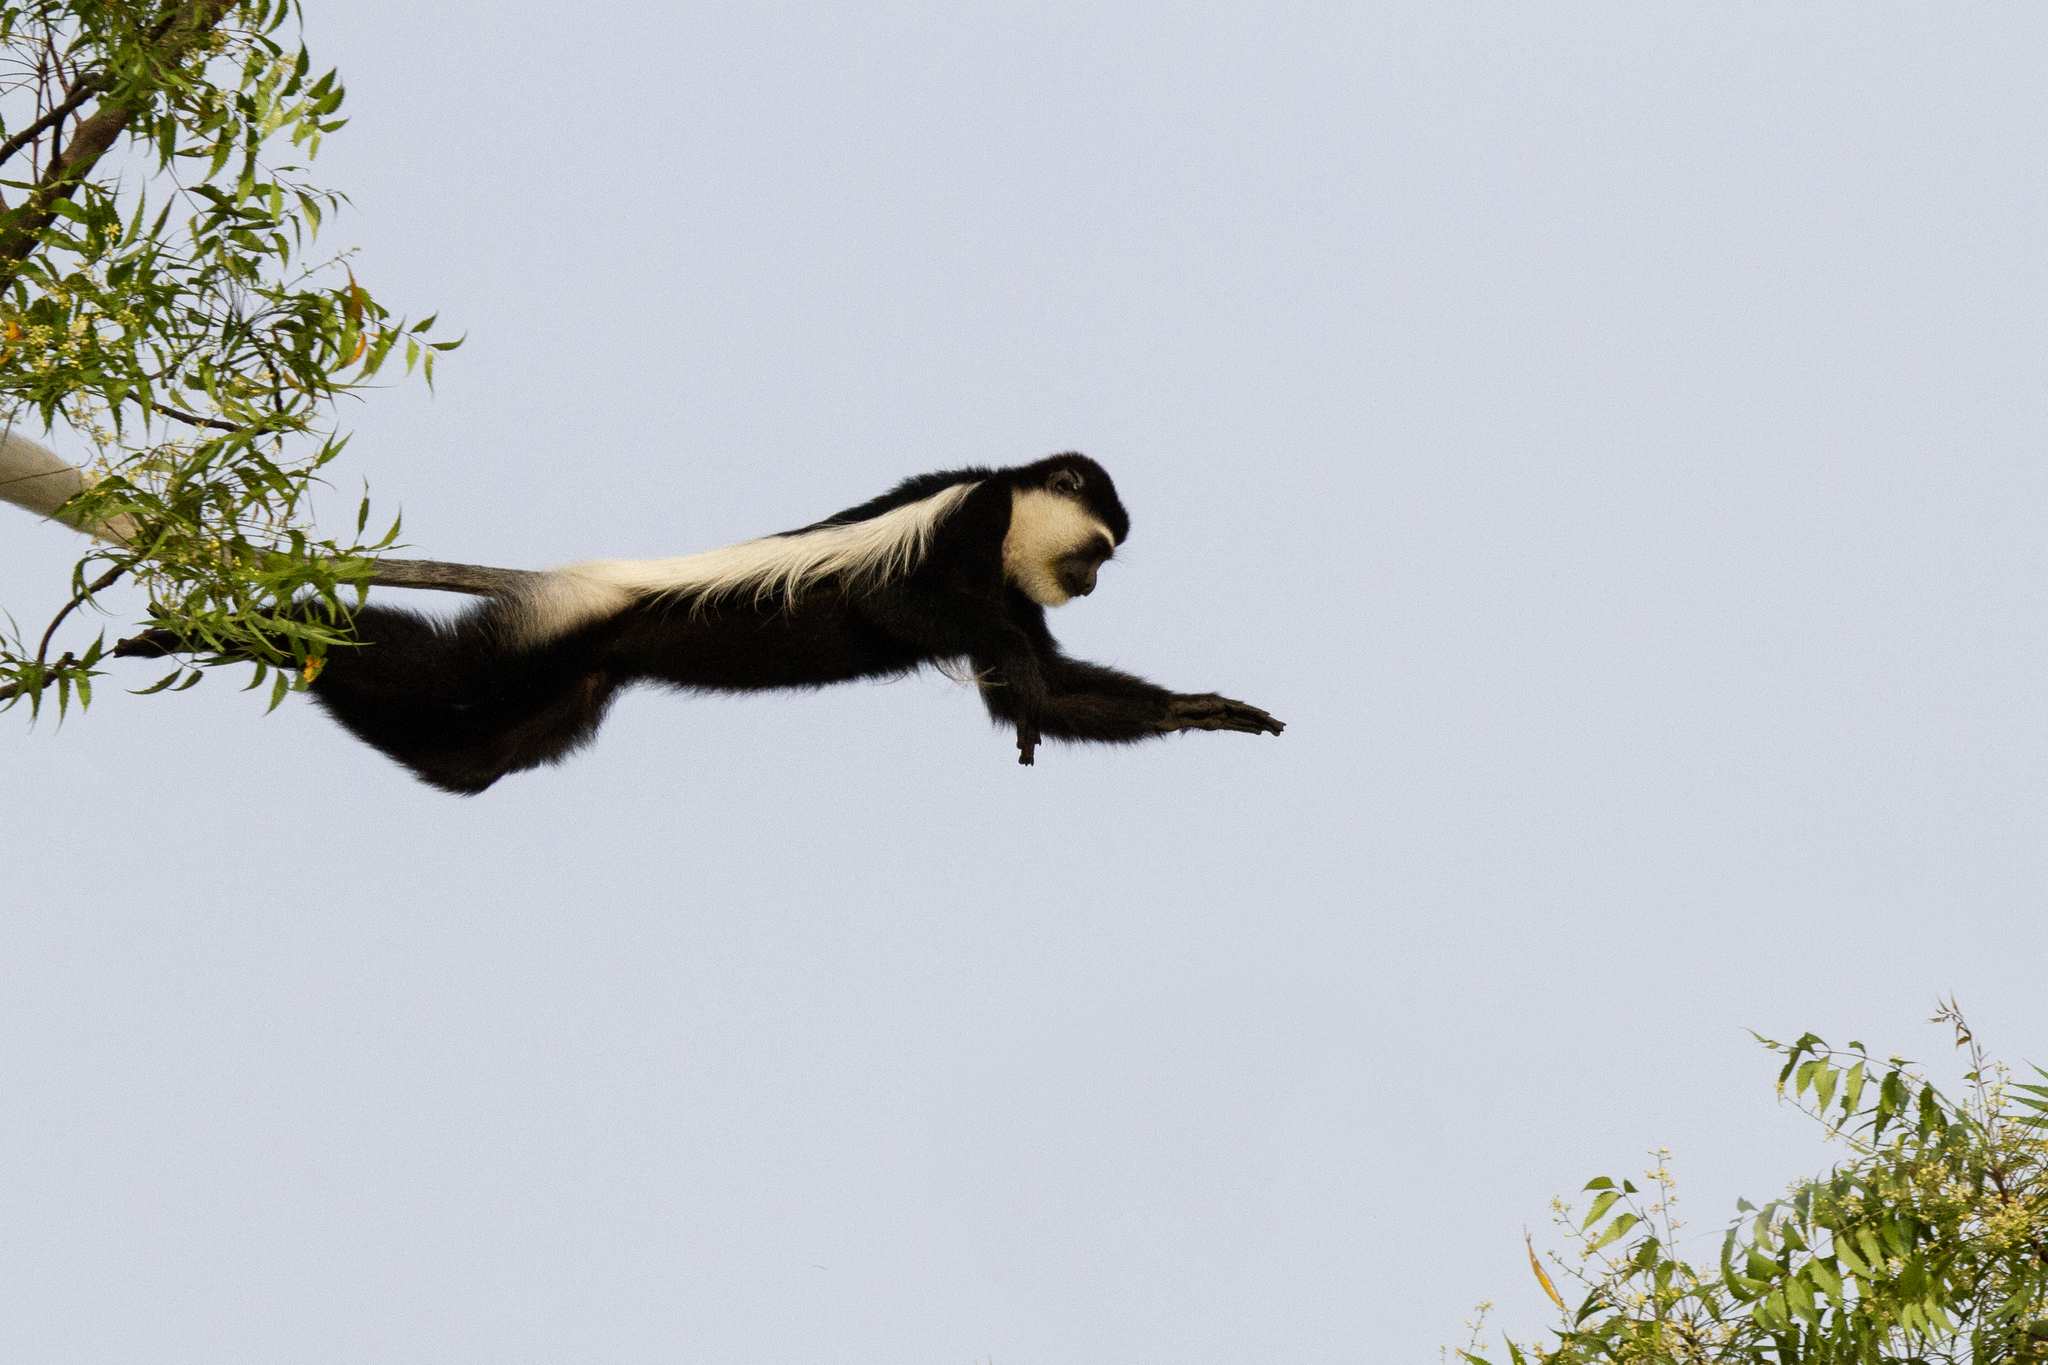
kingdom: Animalia
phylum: Chordata
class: Mammalia
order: Primates
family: Cercopithecidae
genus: Colobus
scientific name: Colobus guereza
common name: Mantled guereza
